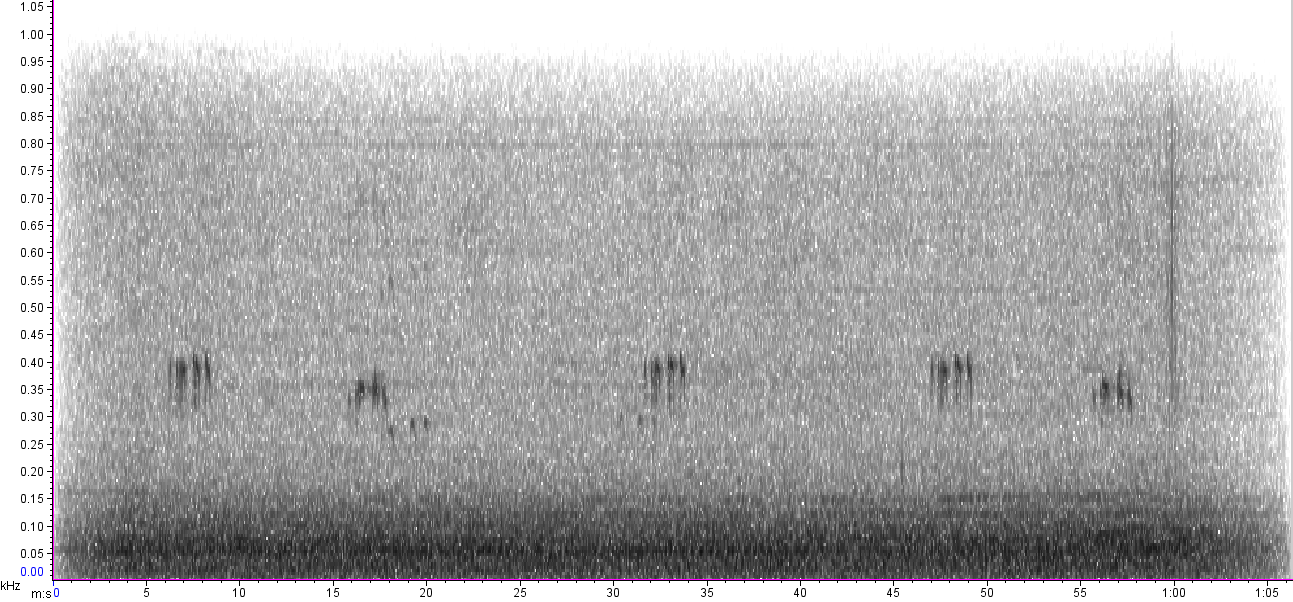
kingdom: Animalia
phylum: Chordata
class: Aves
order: Strigiformes
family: Strigidae
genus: Bubo
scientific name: Bubo virginianus
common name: Great horned owl
